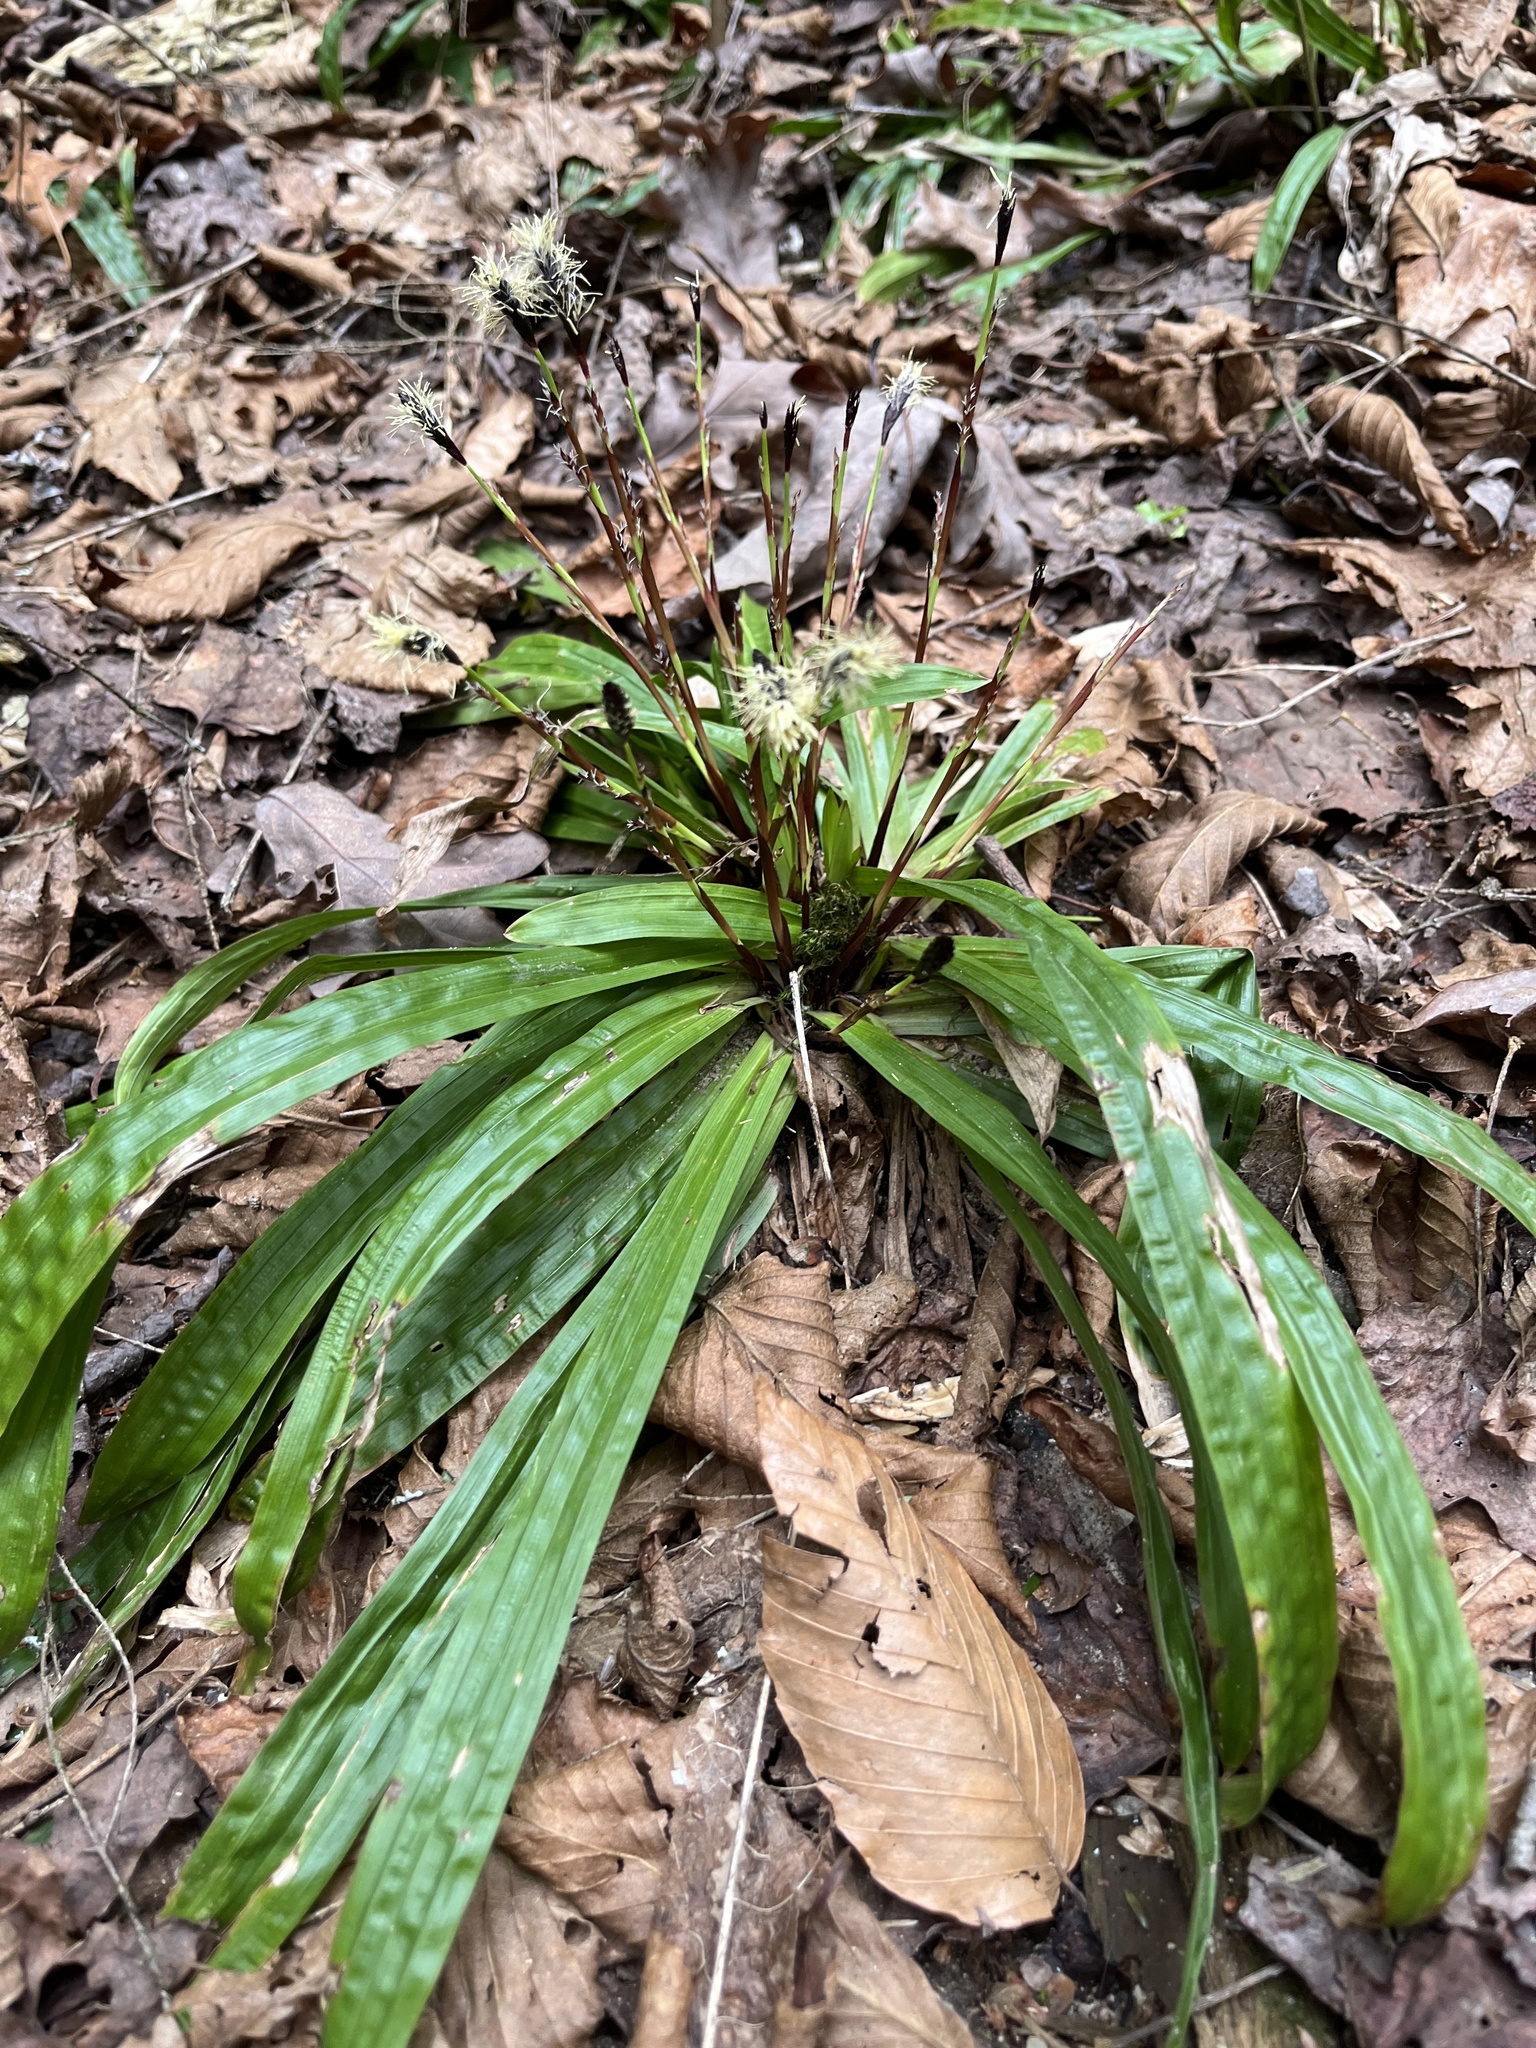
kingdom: Plantae
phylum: Tracheophyta
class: Liliopsida
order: Poales
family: Cyperaceae
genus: Carex
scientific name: Carex plantaginea
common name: Plantain-leaved sedge
